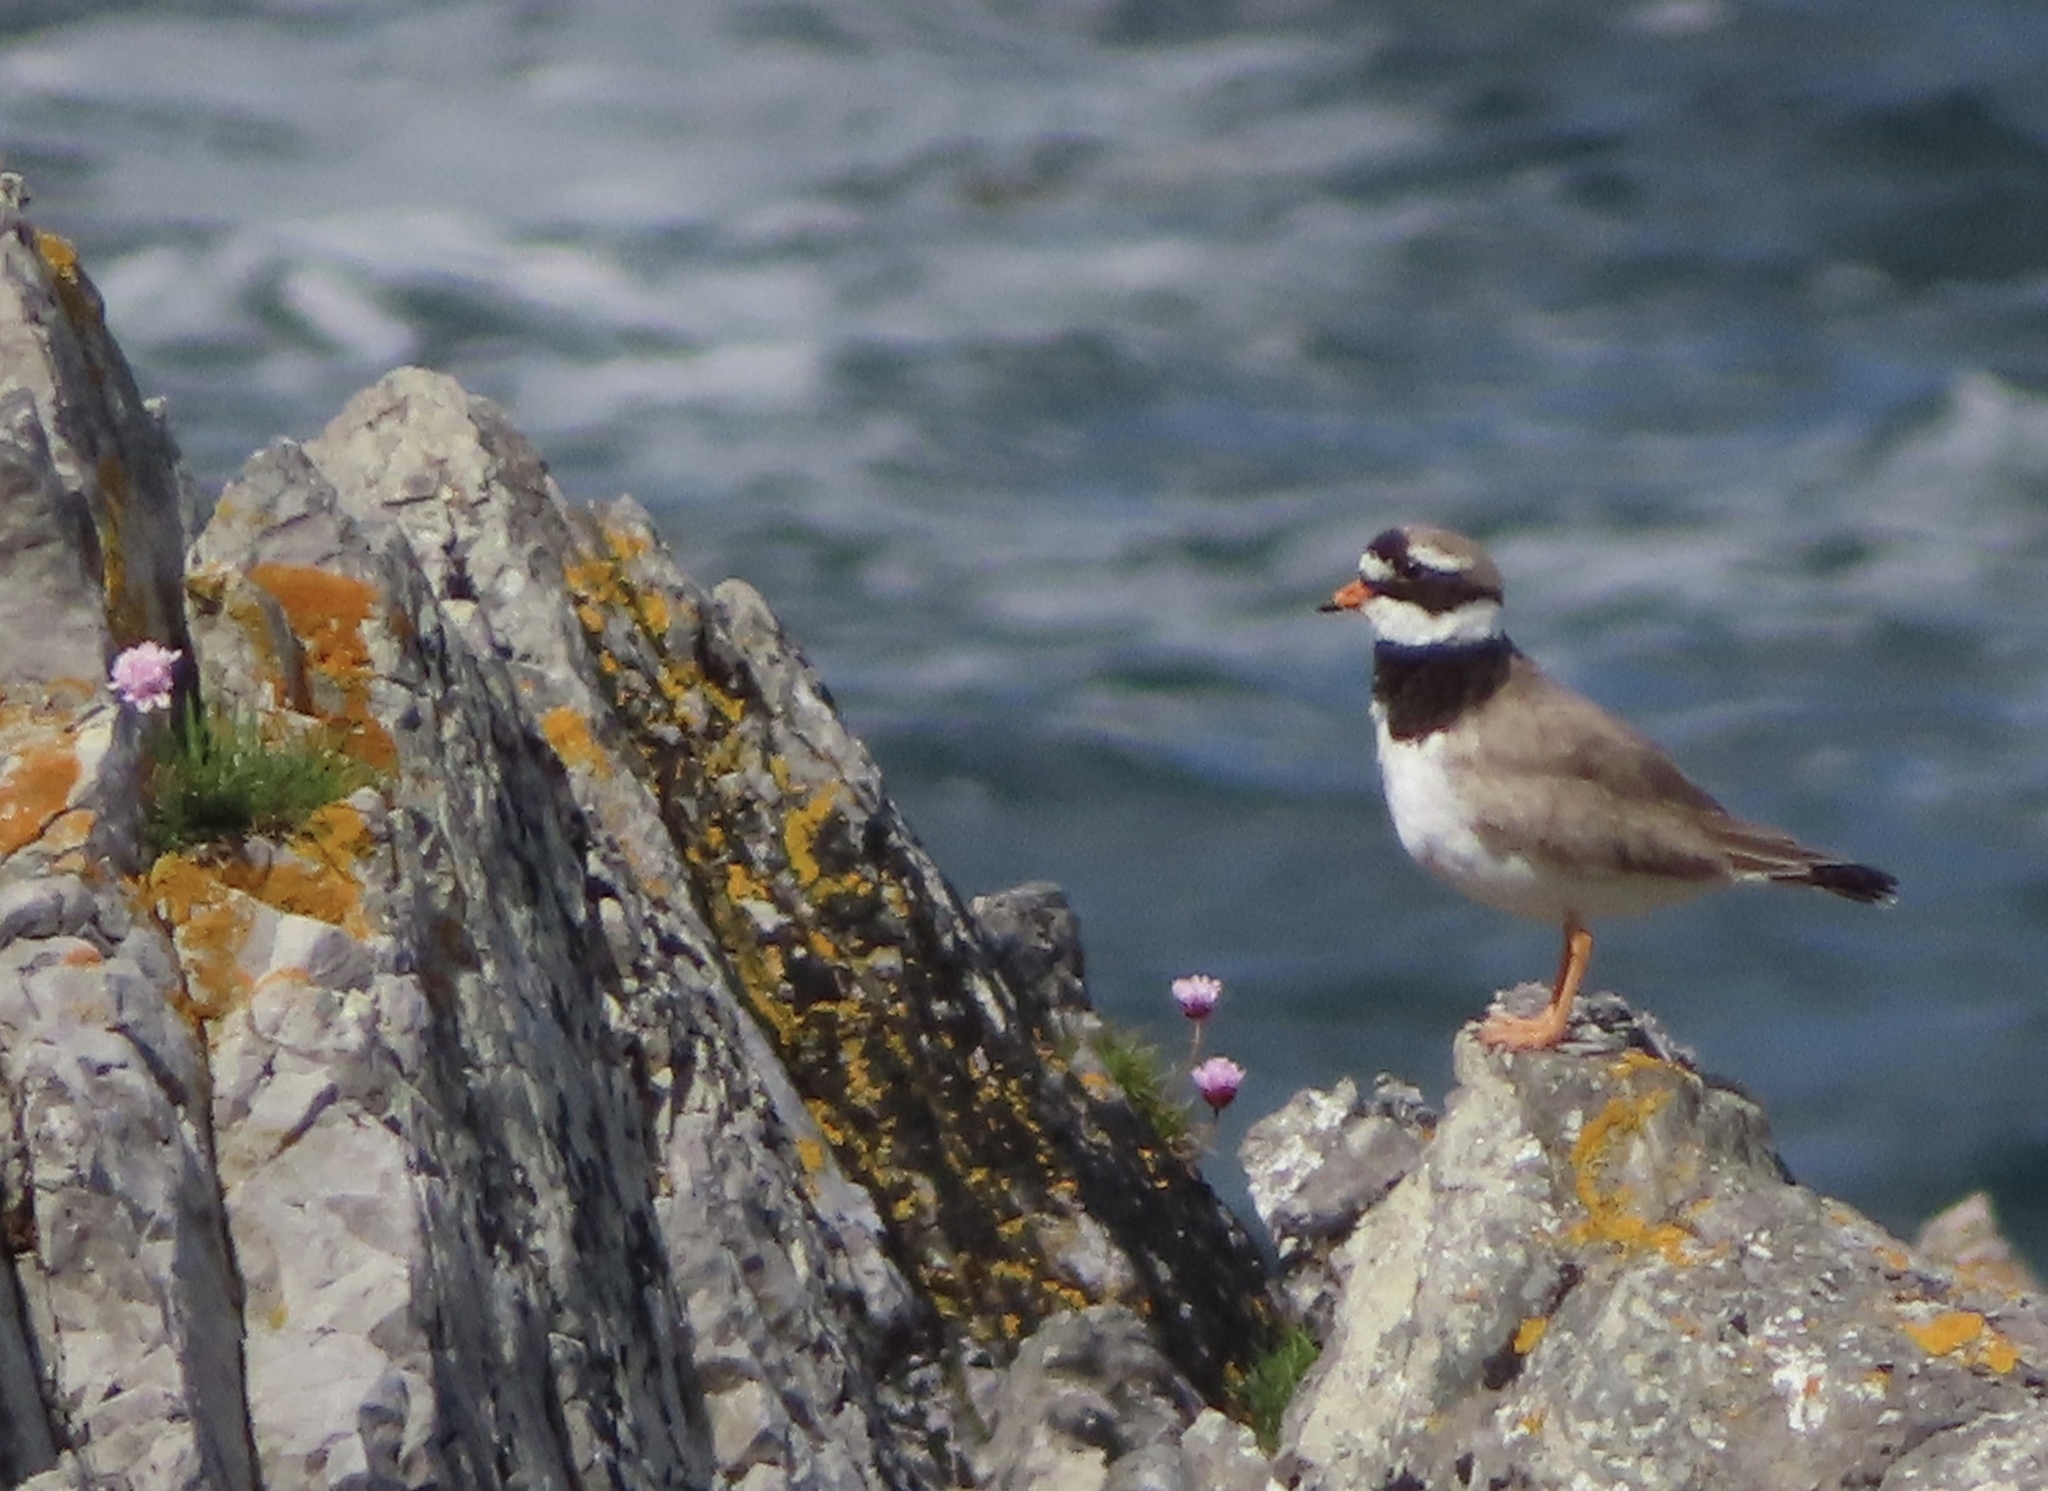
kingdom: Animalia
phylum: Chordata
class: Aves
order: Charadriiformes
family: Charadriidae
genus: Charadrius
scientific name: Charadrius hiaticula
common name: Common ringed plover
